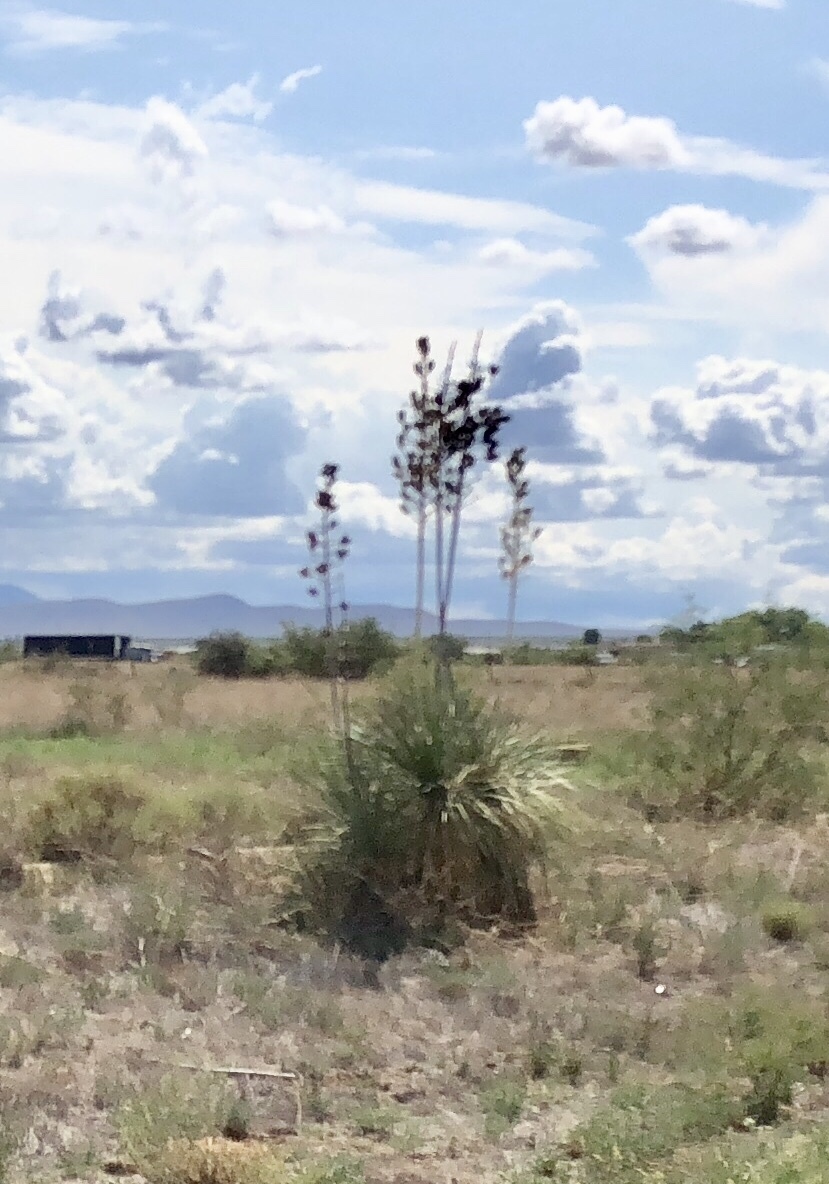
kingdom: Plantae
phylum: Tracheophyta
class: Liliopsida
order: Asparagales
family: Asparagaceae
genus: Yucca
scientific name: Yucca elata
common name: Palmella
